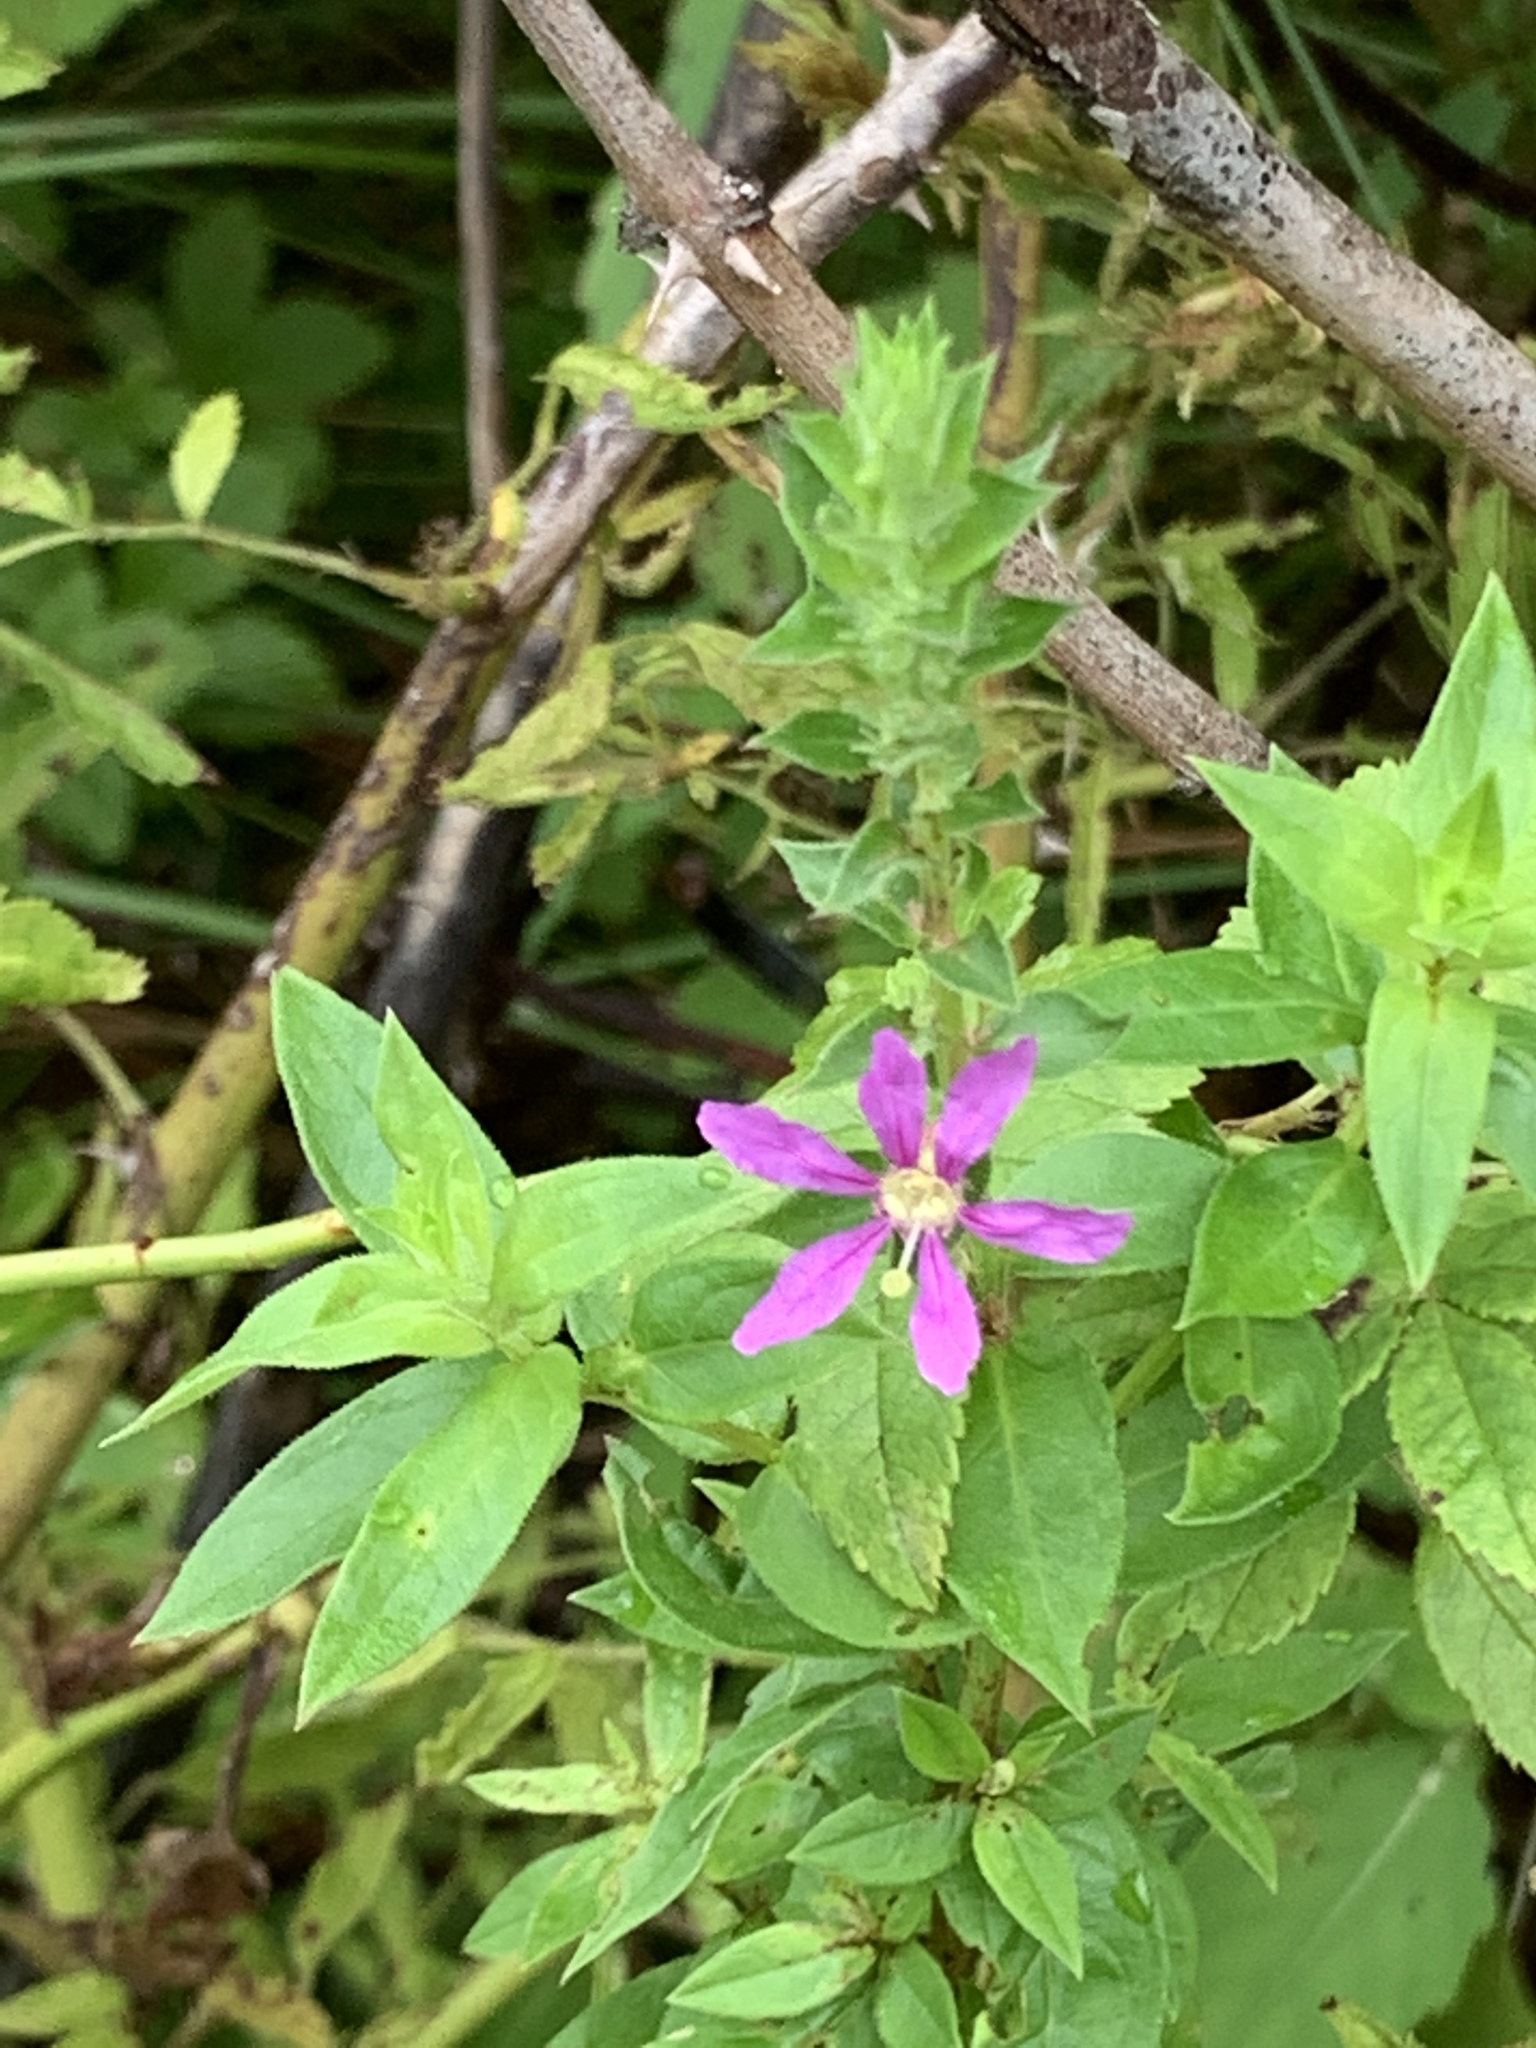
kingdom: Plantae
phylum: Tracheophyta
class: Magnoliopsida
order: Myrtales
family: Lythraceae
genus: Lythrum
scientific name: Lythrum salicaria
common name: Purple loosestrife
